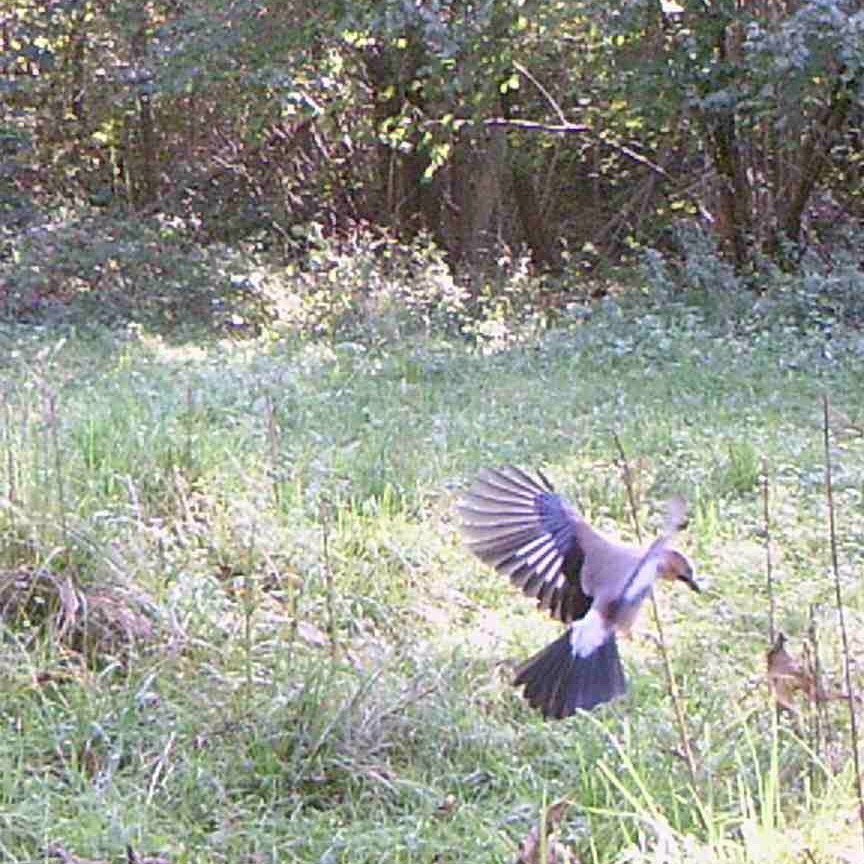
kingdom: Animalia
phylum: Chordata
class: Aves
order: Passeriformes
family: Corvidae
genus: Garrulus
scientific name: Garrulus glandarius
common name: Eurasian jay
